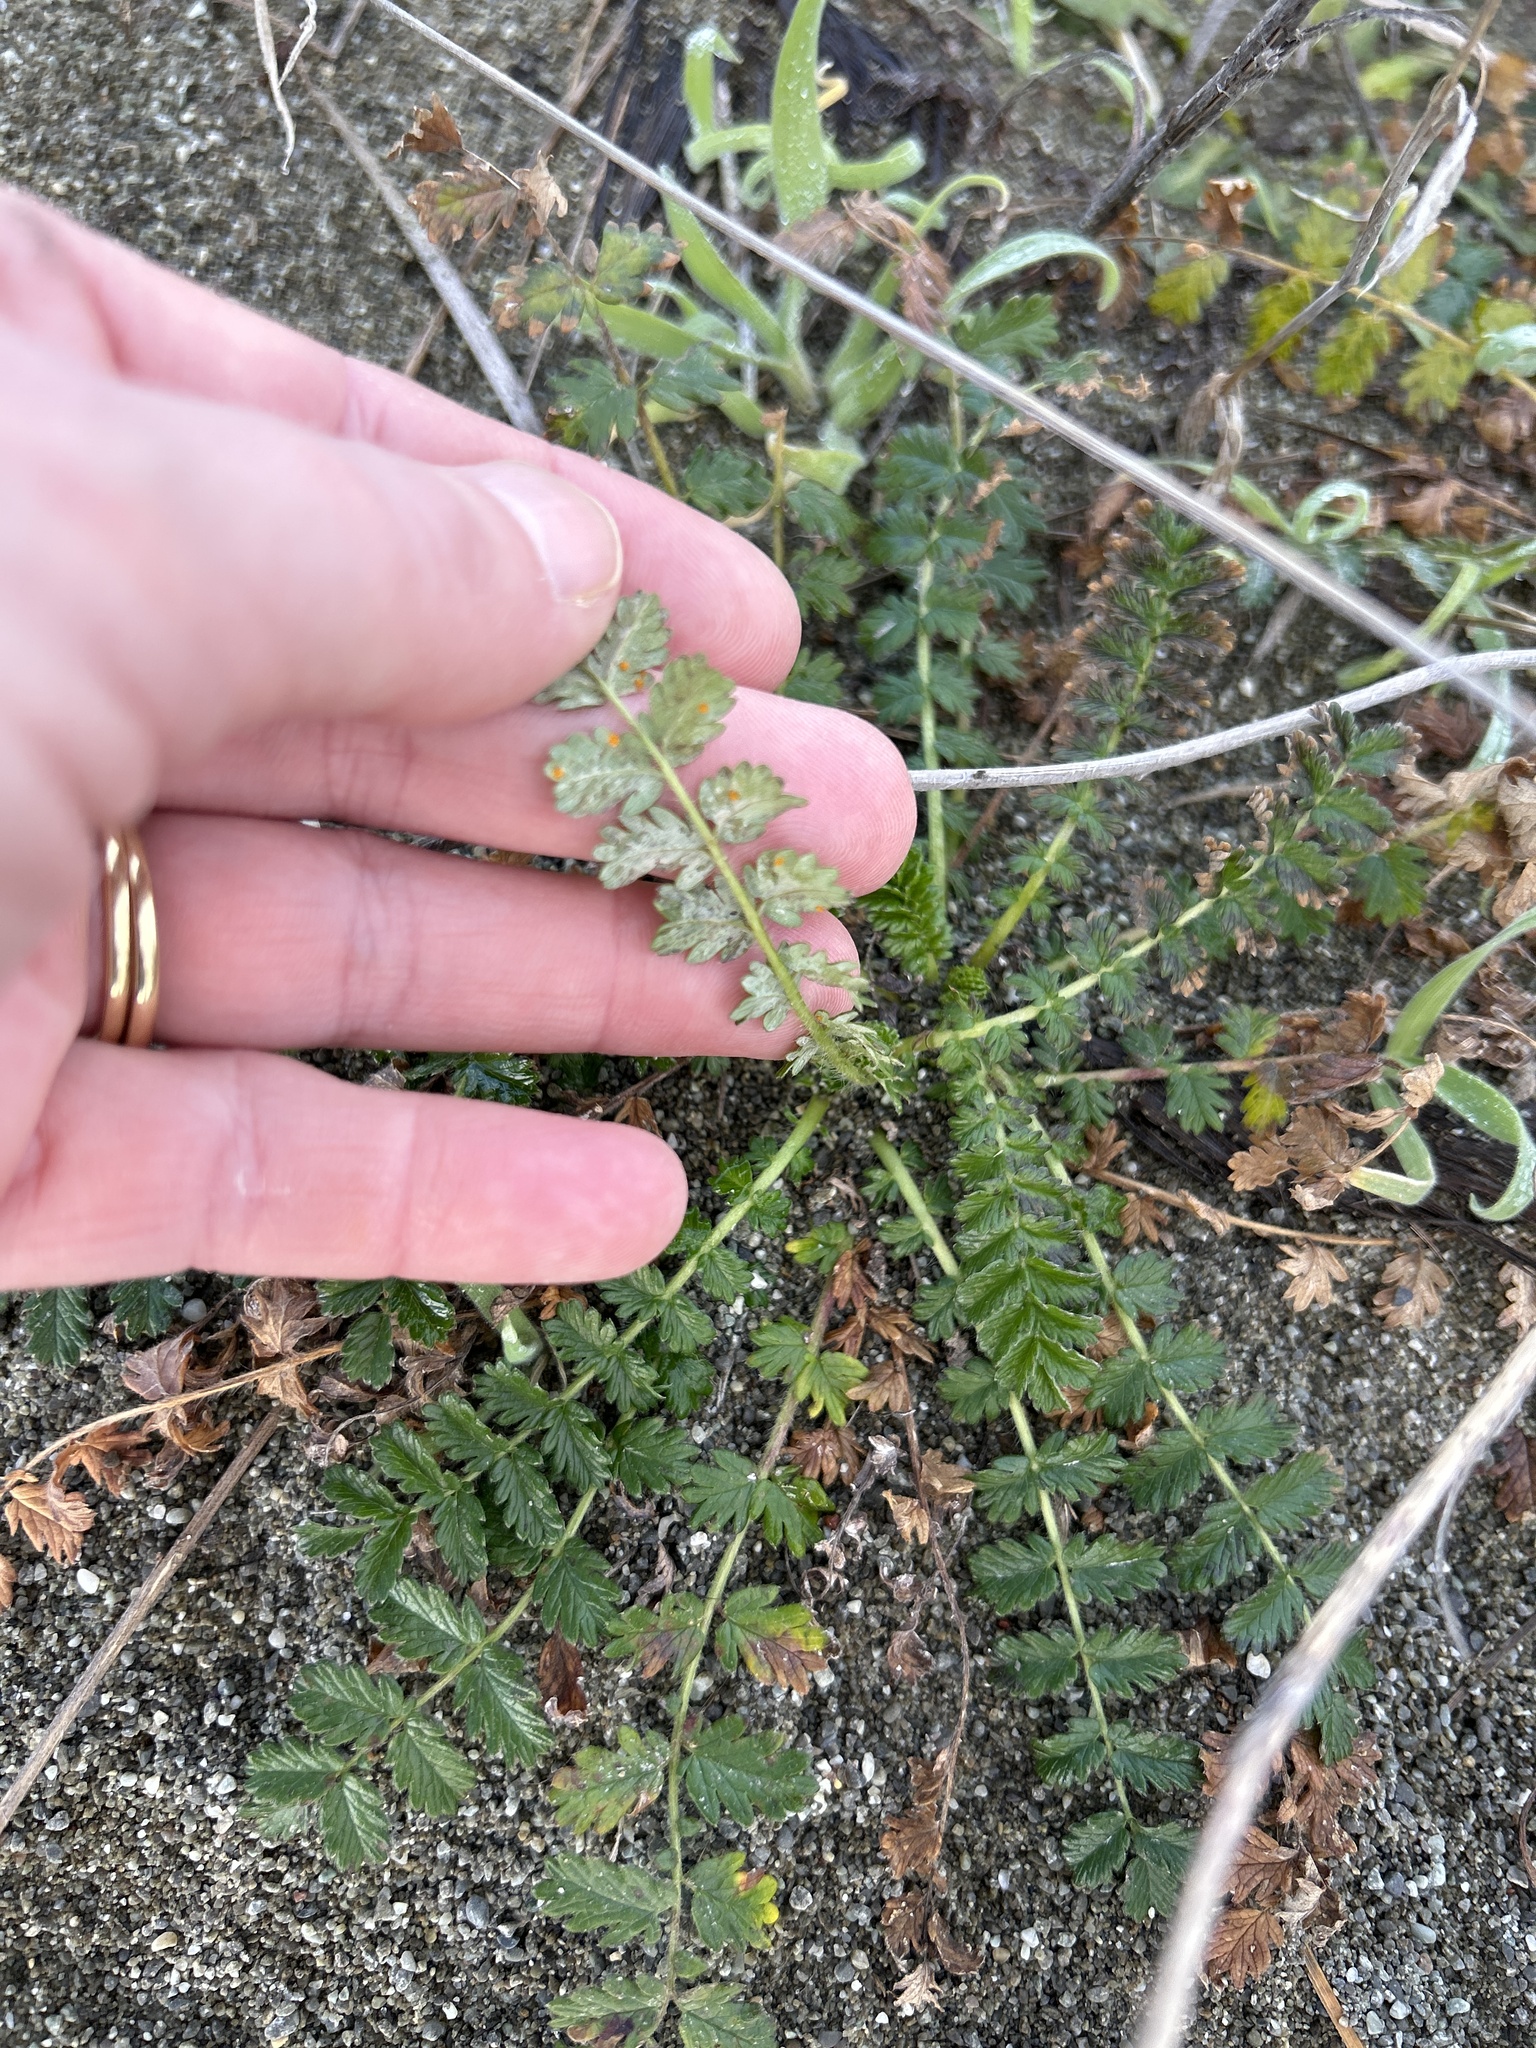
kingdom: Plantae
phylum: Tracheophyta
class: Magnoliopsida
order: Rosales
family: Rosaceae
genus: Acaena
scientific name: Acaena agnipila
